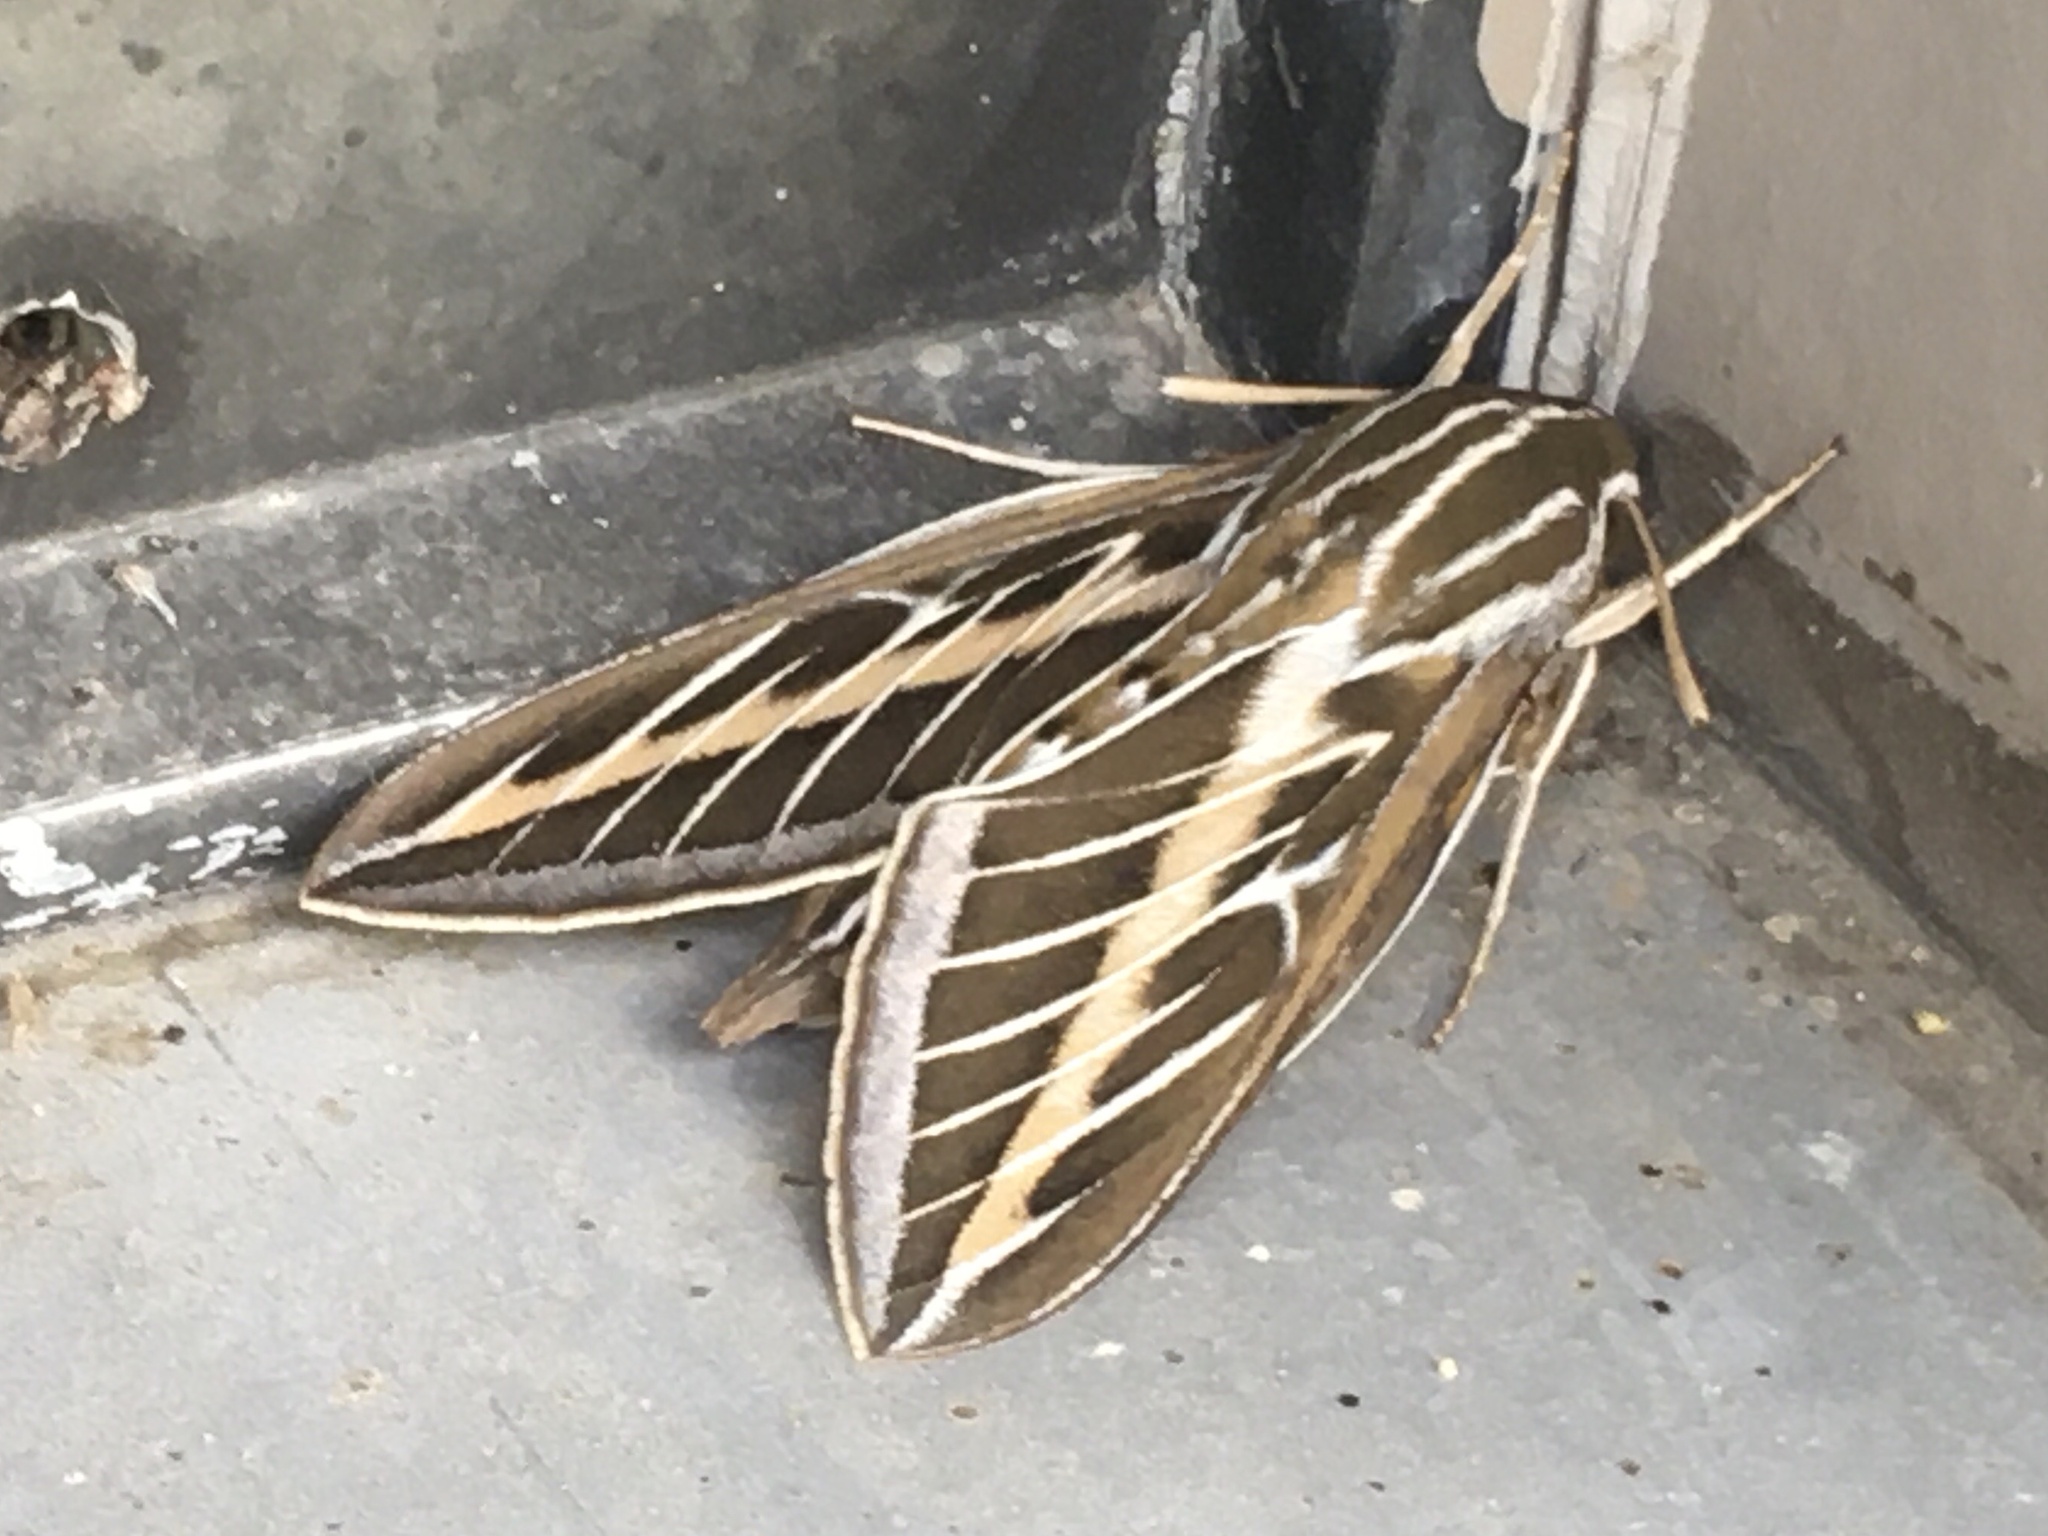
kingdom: Animalia
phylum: Arthropoda
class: Insecta
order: Lepidoptera
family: Sphingidae
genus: Hyles
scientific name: Hyles lineata
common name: White-lined sphinx
